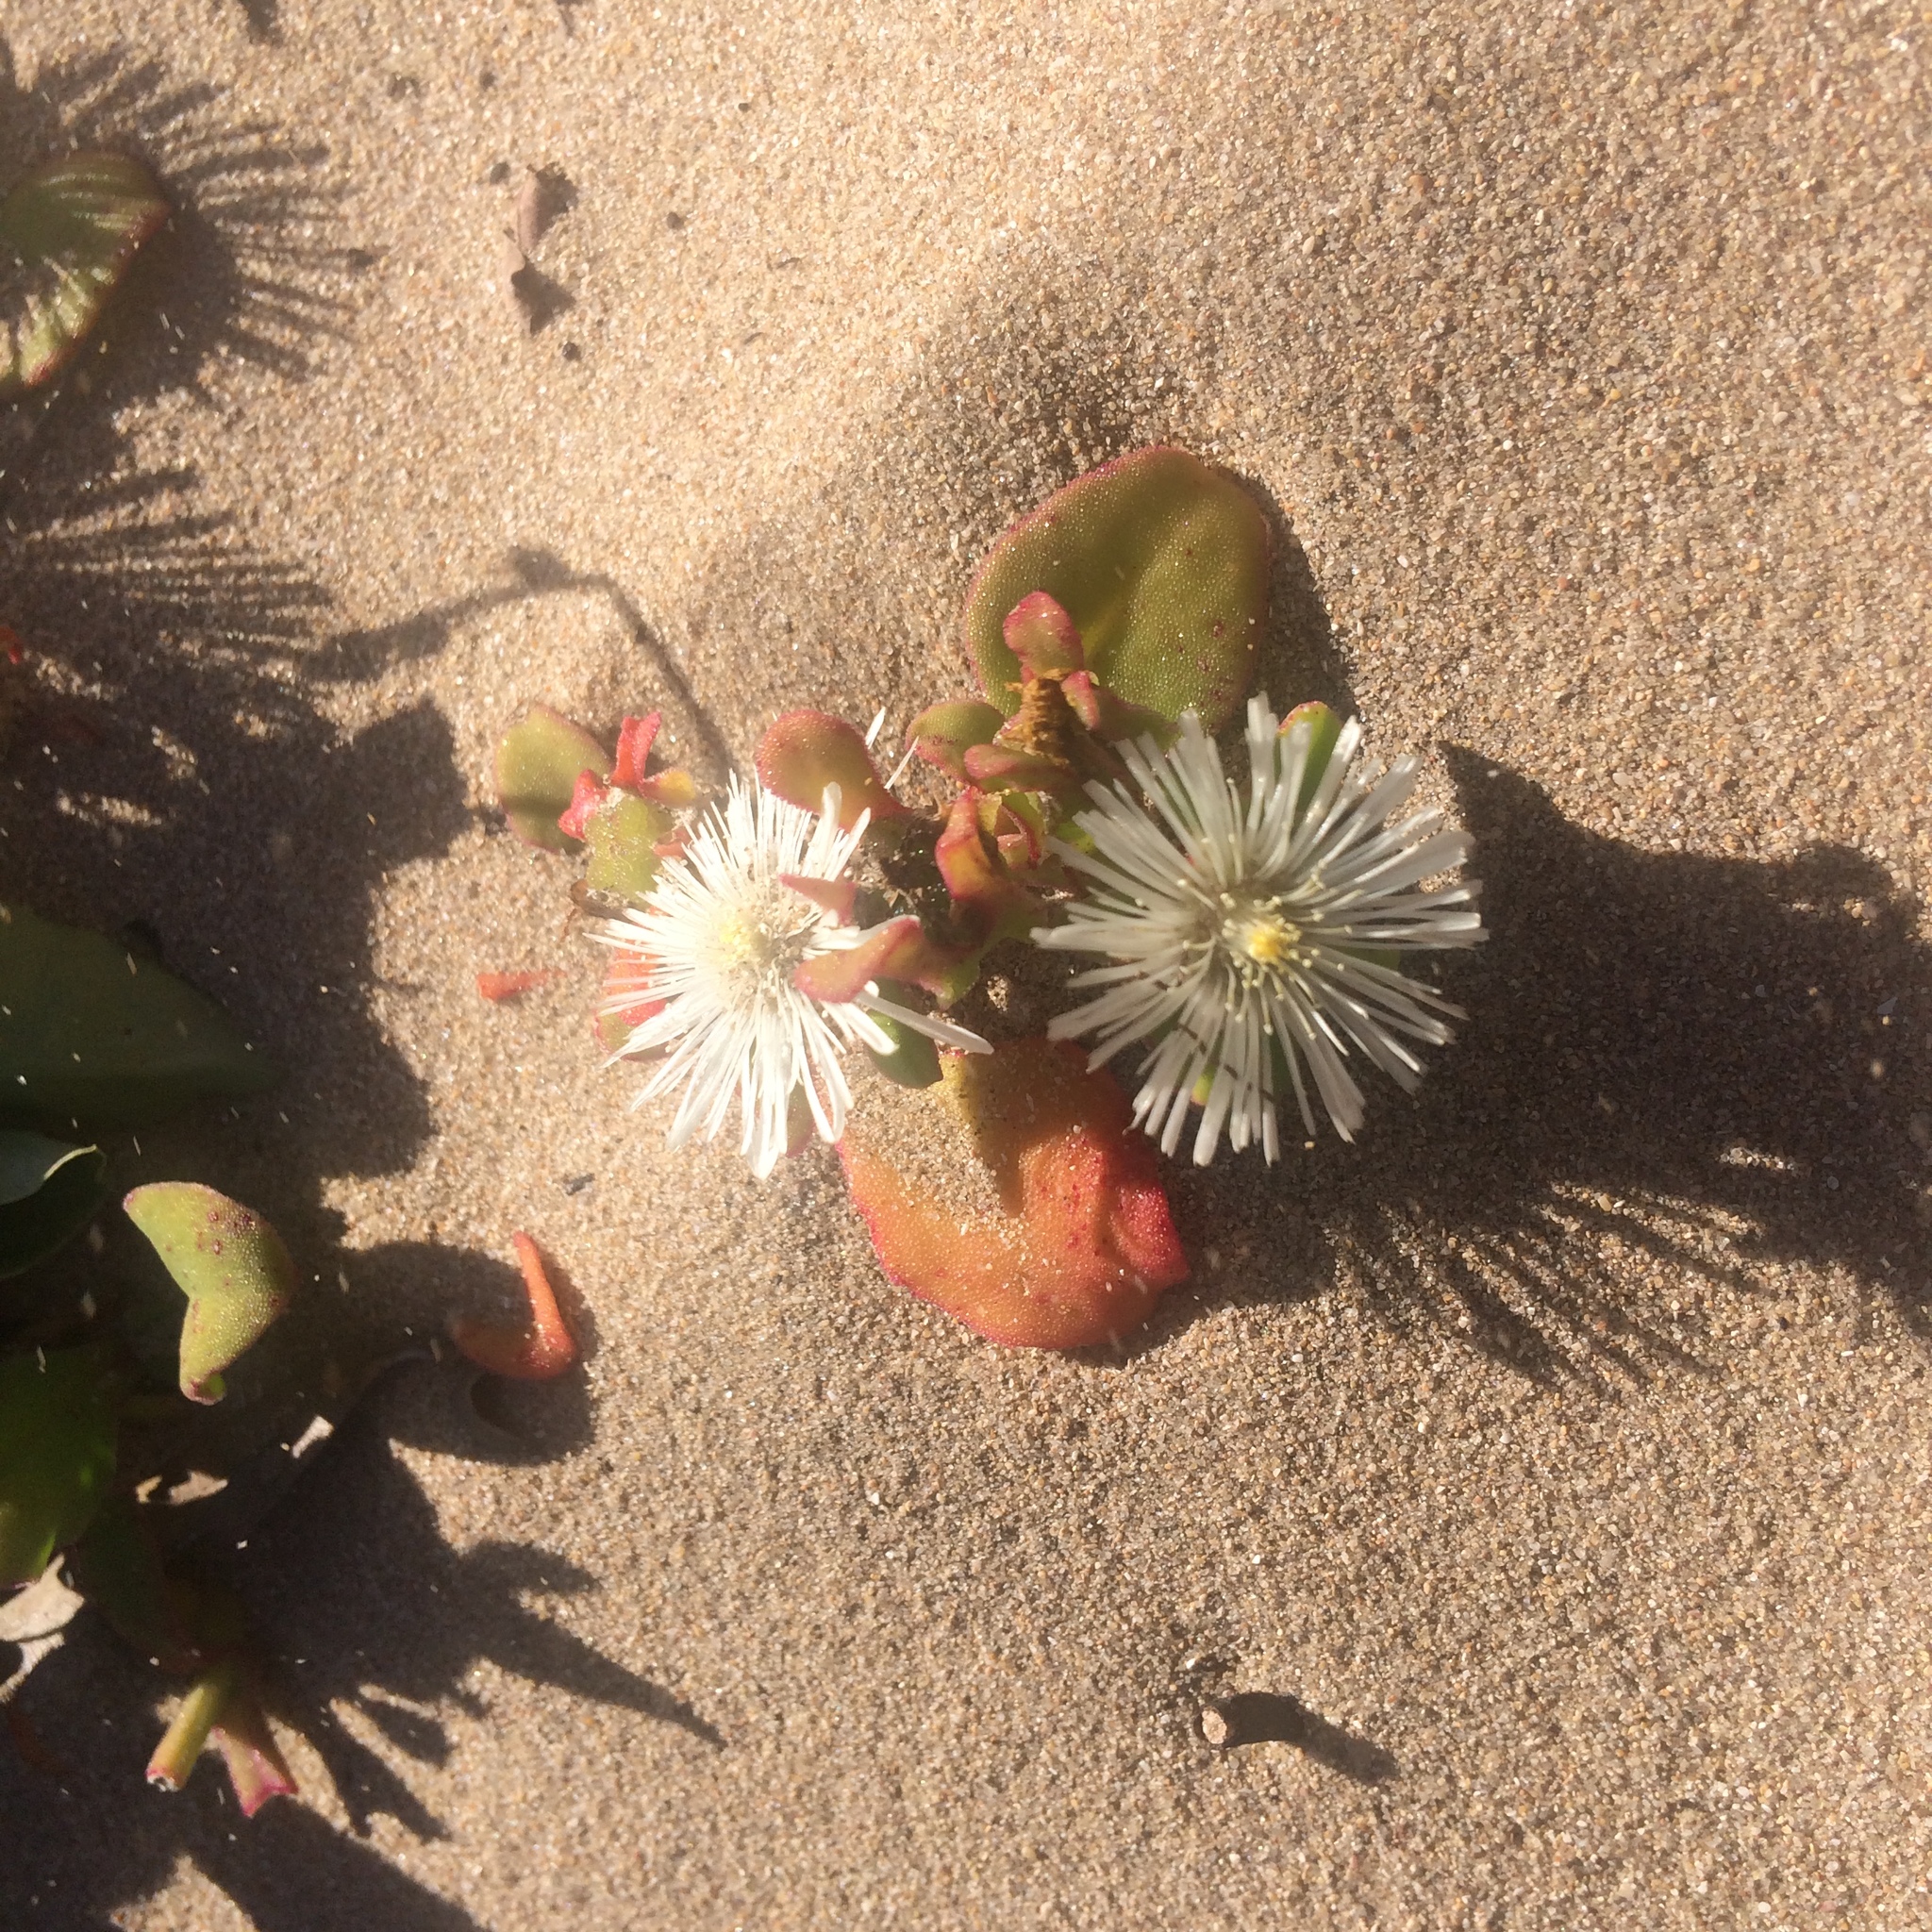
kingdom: Plantae
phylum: Tracheophyta
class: Magnoliopsida
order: Caryophyllales
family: Aizoaceae
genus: Mesembryanthemum
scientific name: Mesembryanthemum aitonis
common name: Angled iceplant
